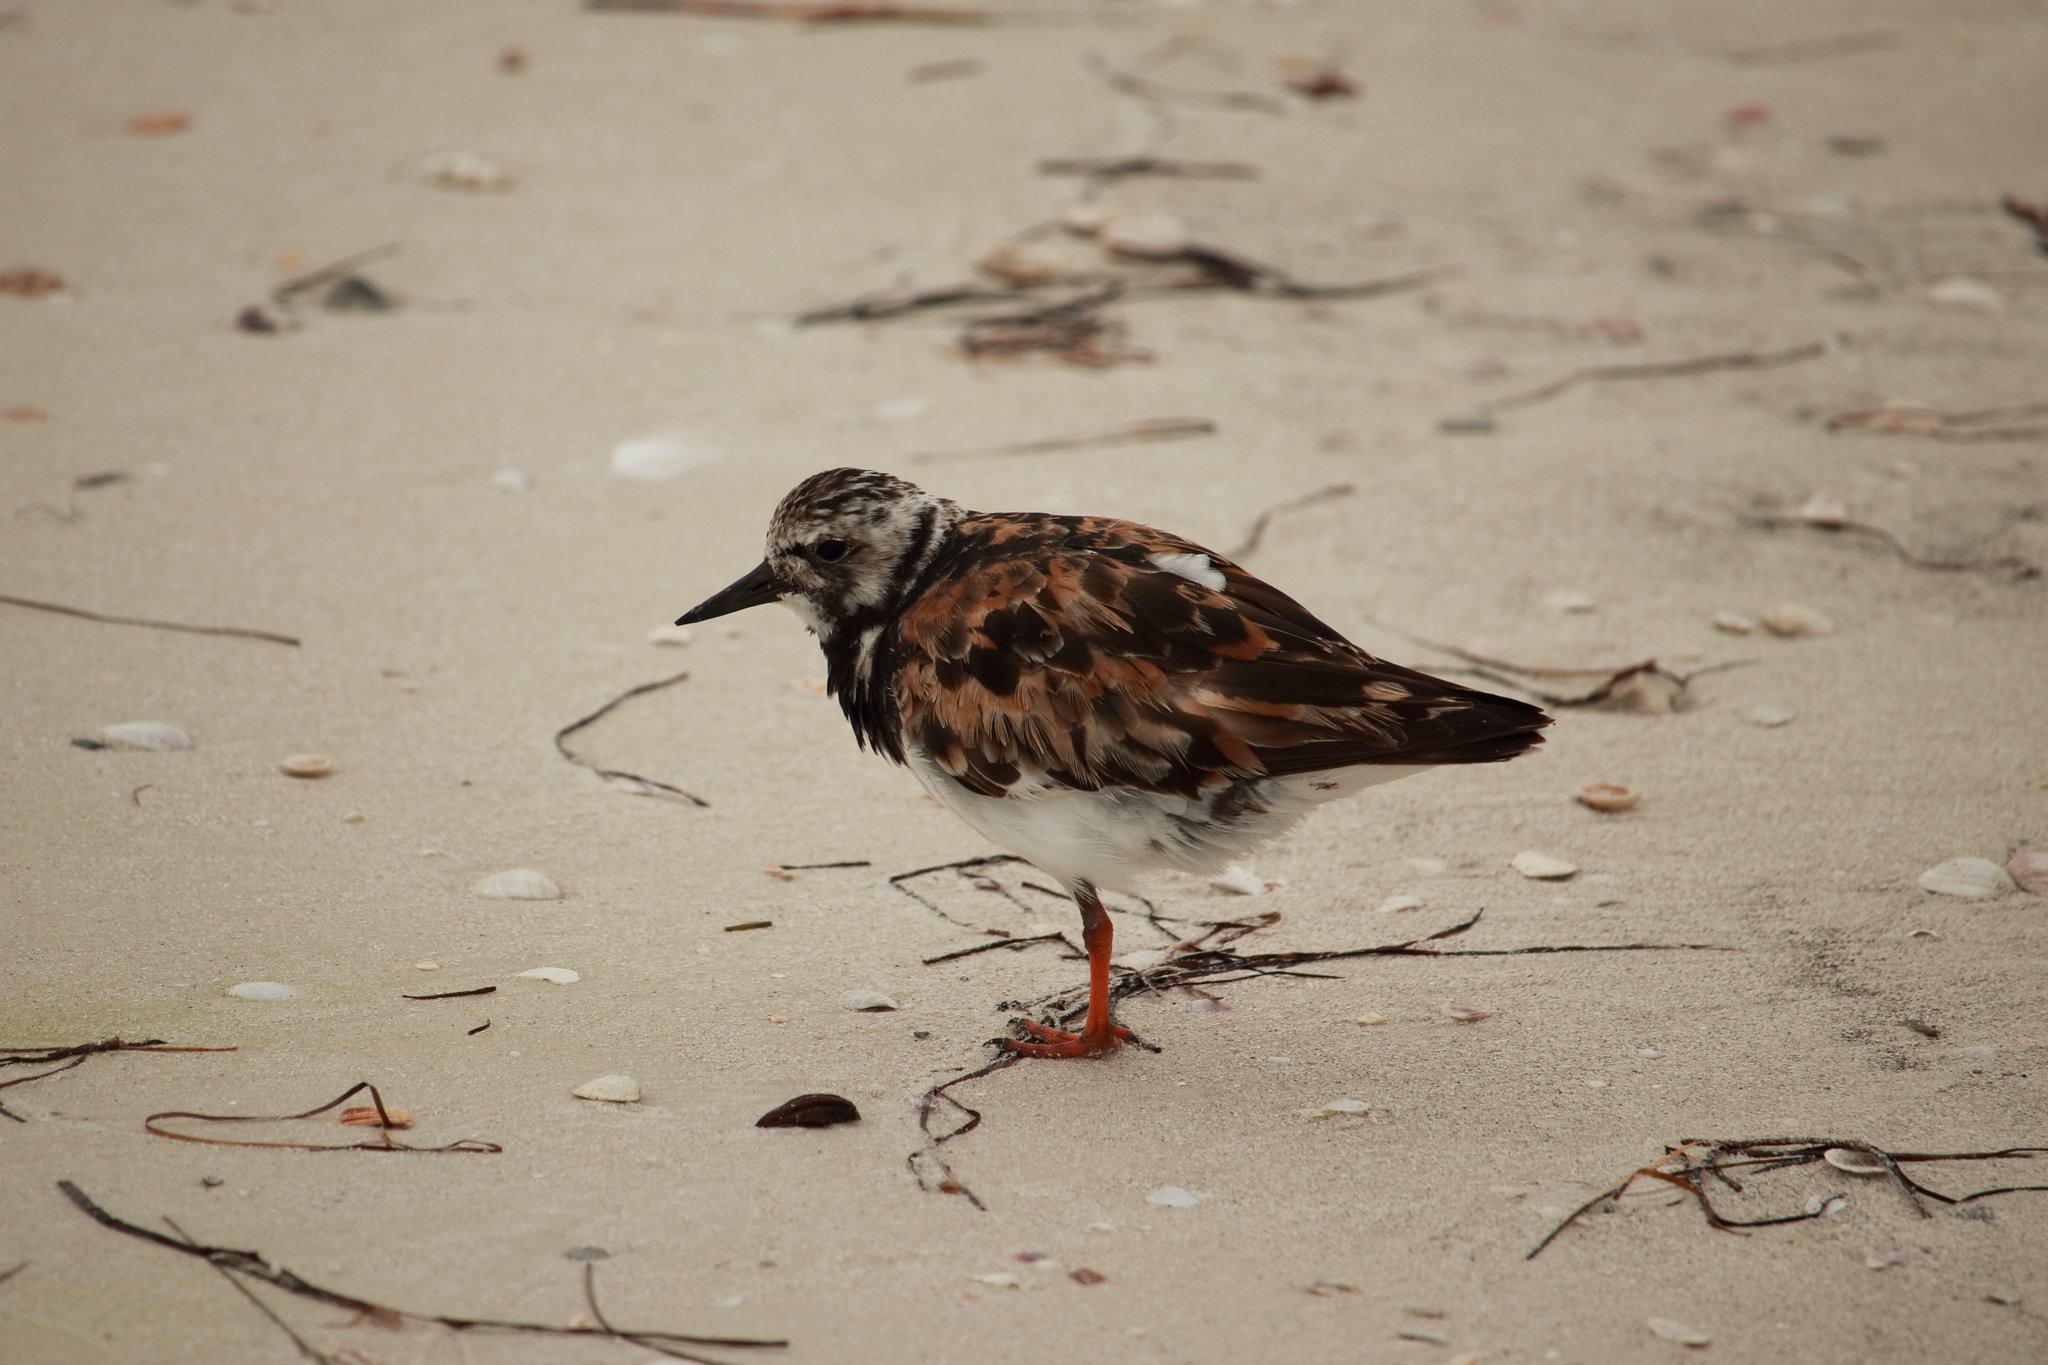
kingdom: Animalia
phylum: Chordata
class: Aves
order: Charadriiformes
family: Scolopacidae
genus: Arenaria
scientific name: Arenaria interpres
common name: Ruddy turnstone
